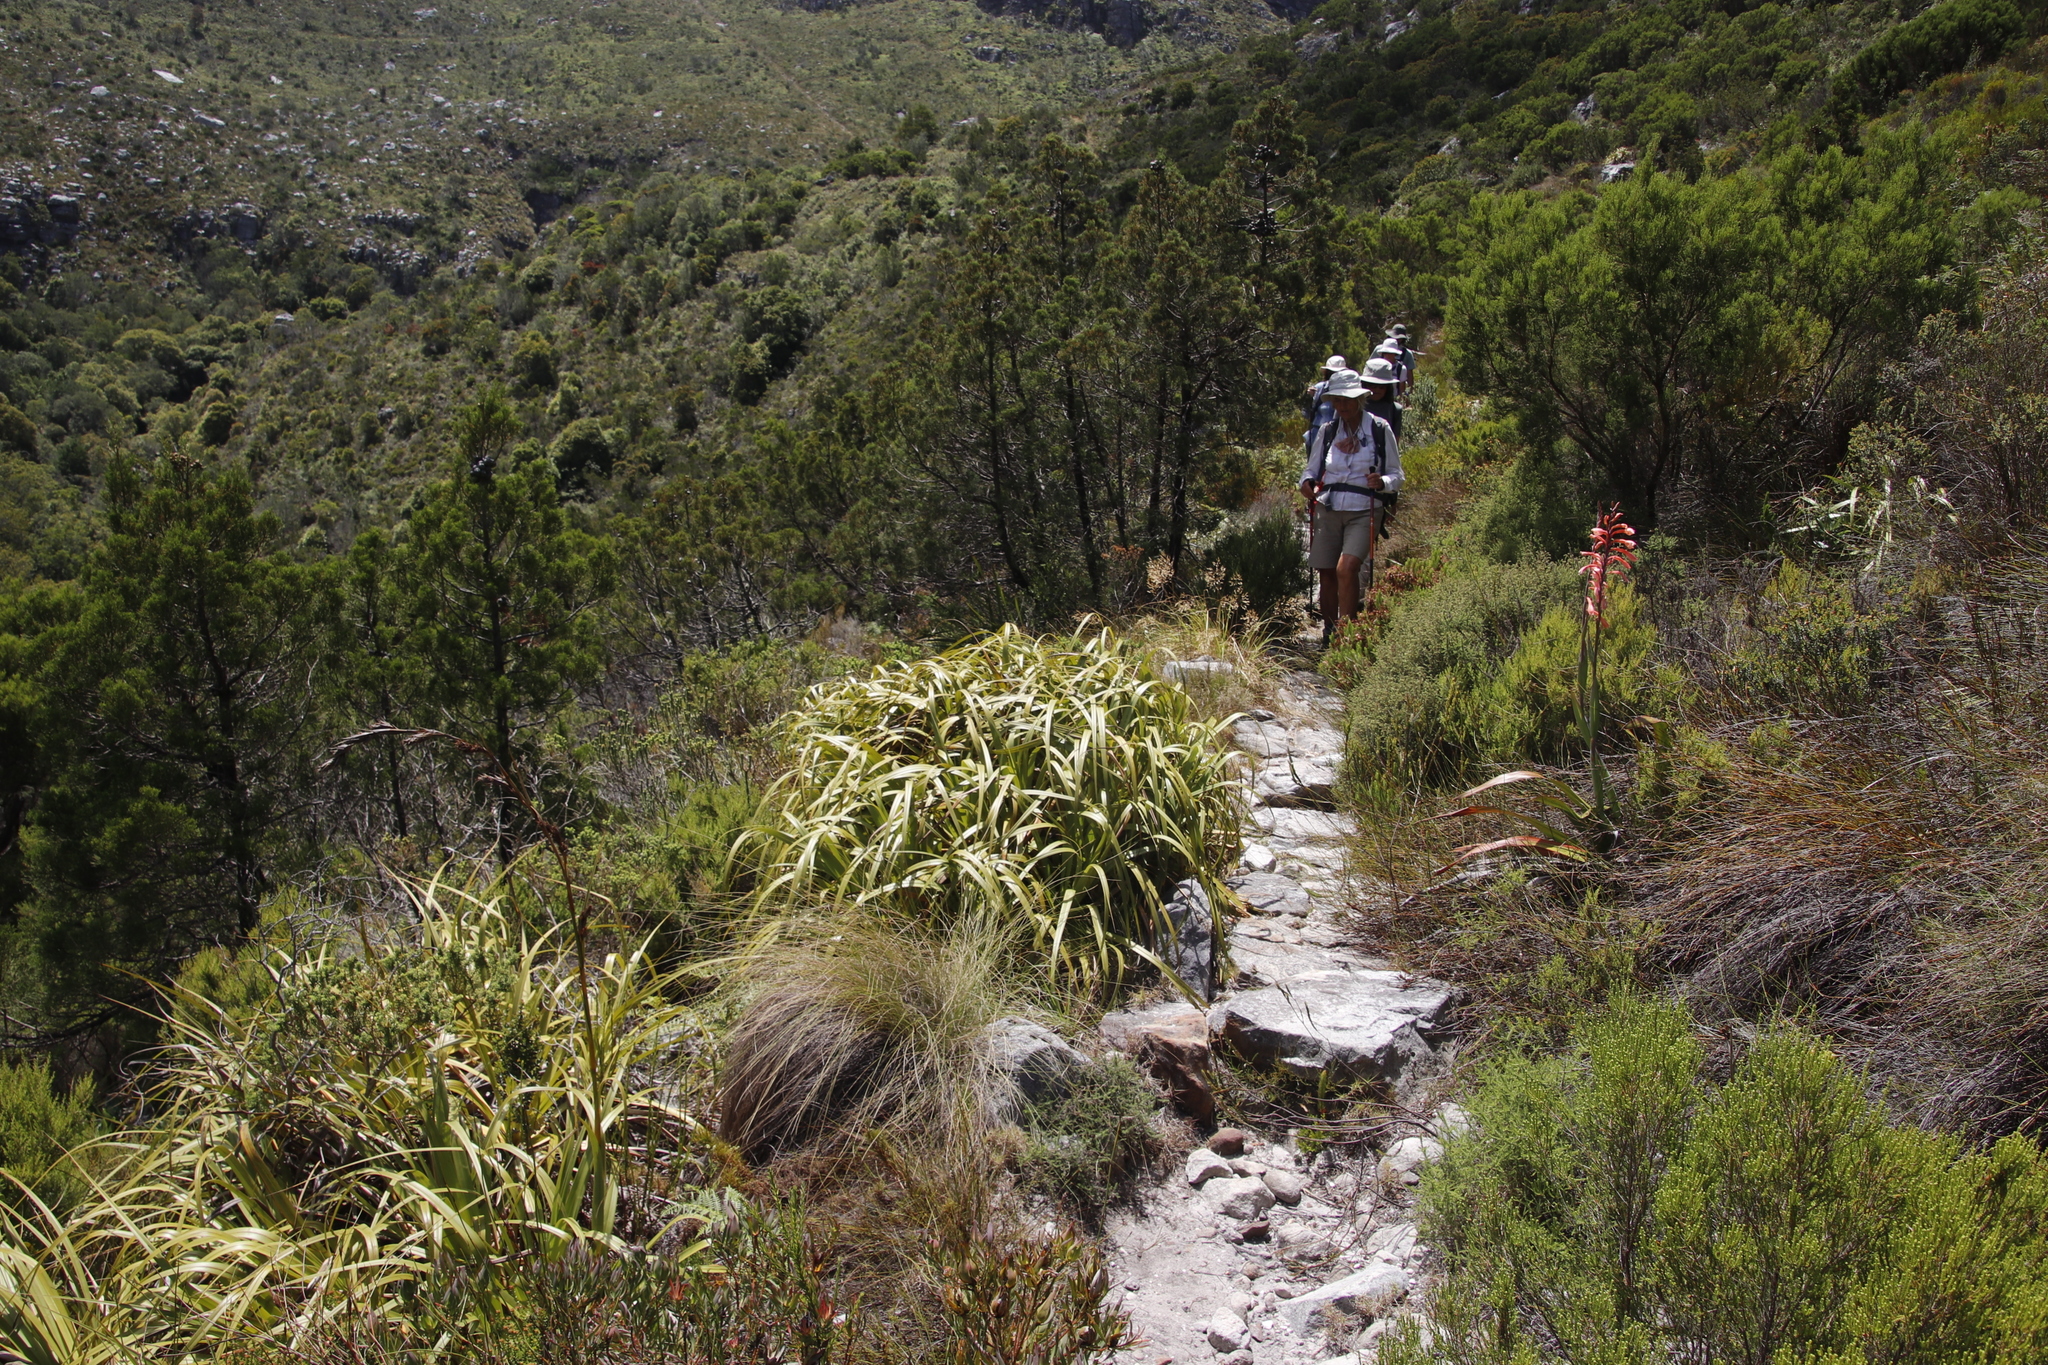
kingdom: Plantae
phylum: Tracheophyta
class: Liliopsida
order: Poales
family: Cyperaceae
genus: Tetraria
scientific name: Tetraria thermalis
